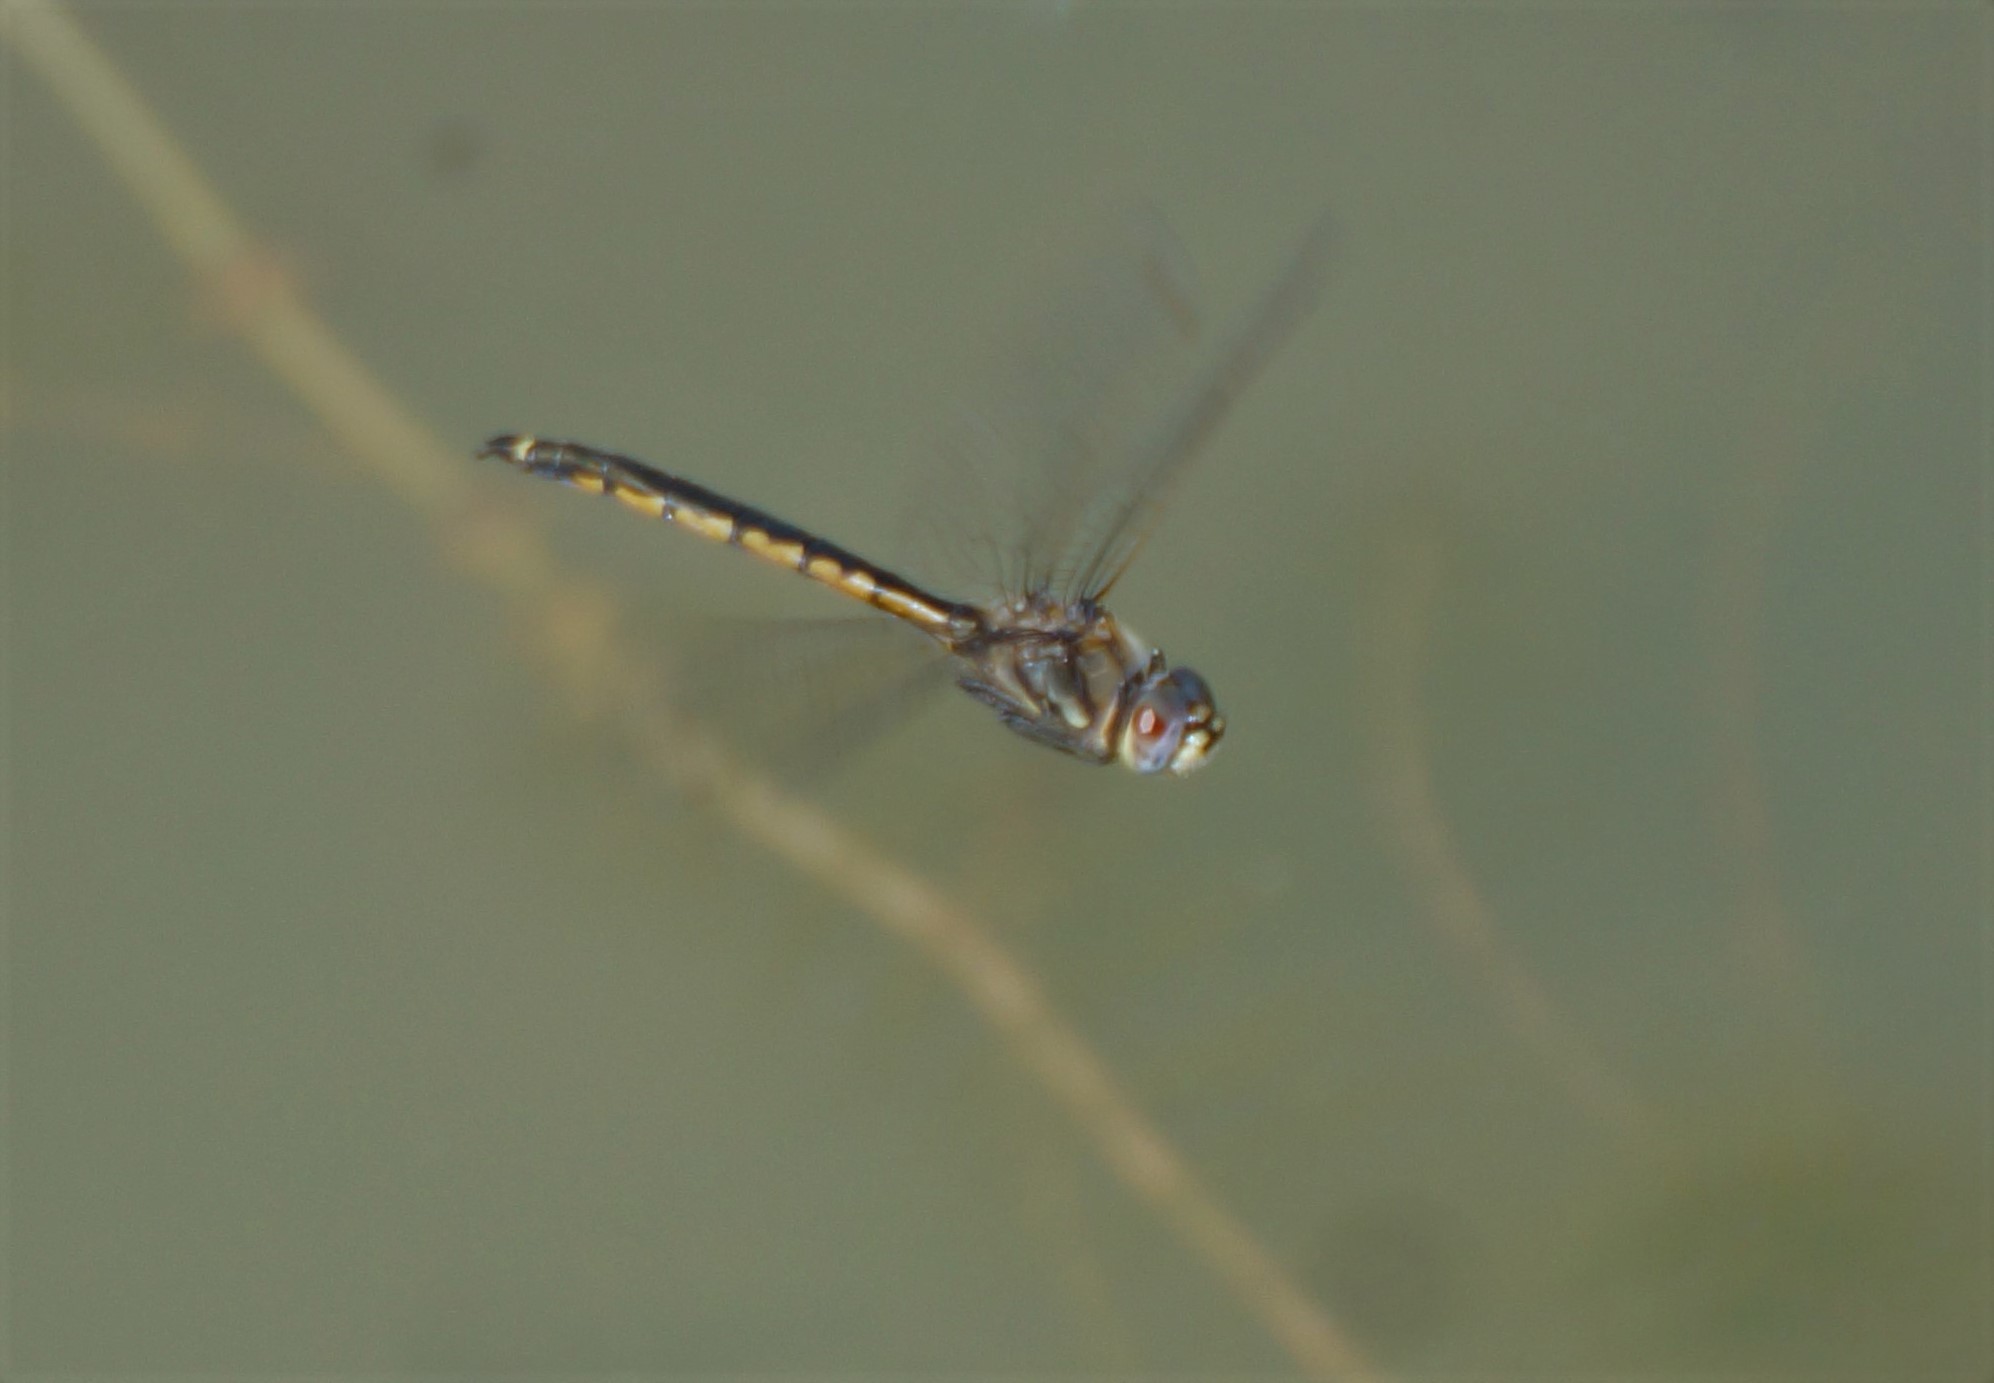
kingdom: Animalia
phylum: Arthropoda
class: Insecta
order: Odonata
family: Corduliidae
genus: Hemicordulia
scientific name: Hemicordulia tau
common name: Tau emerald
